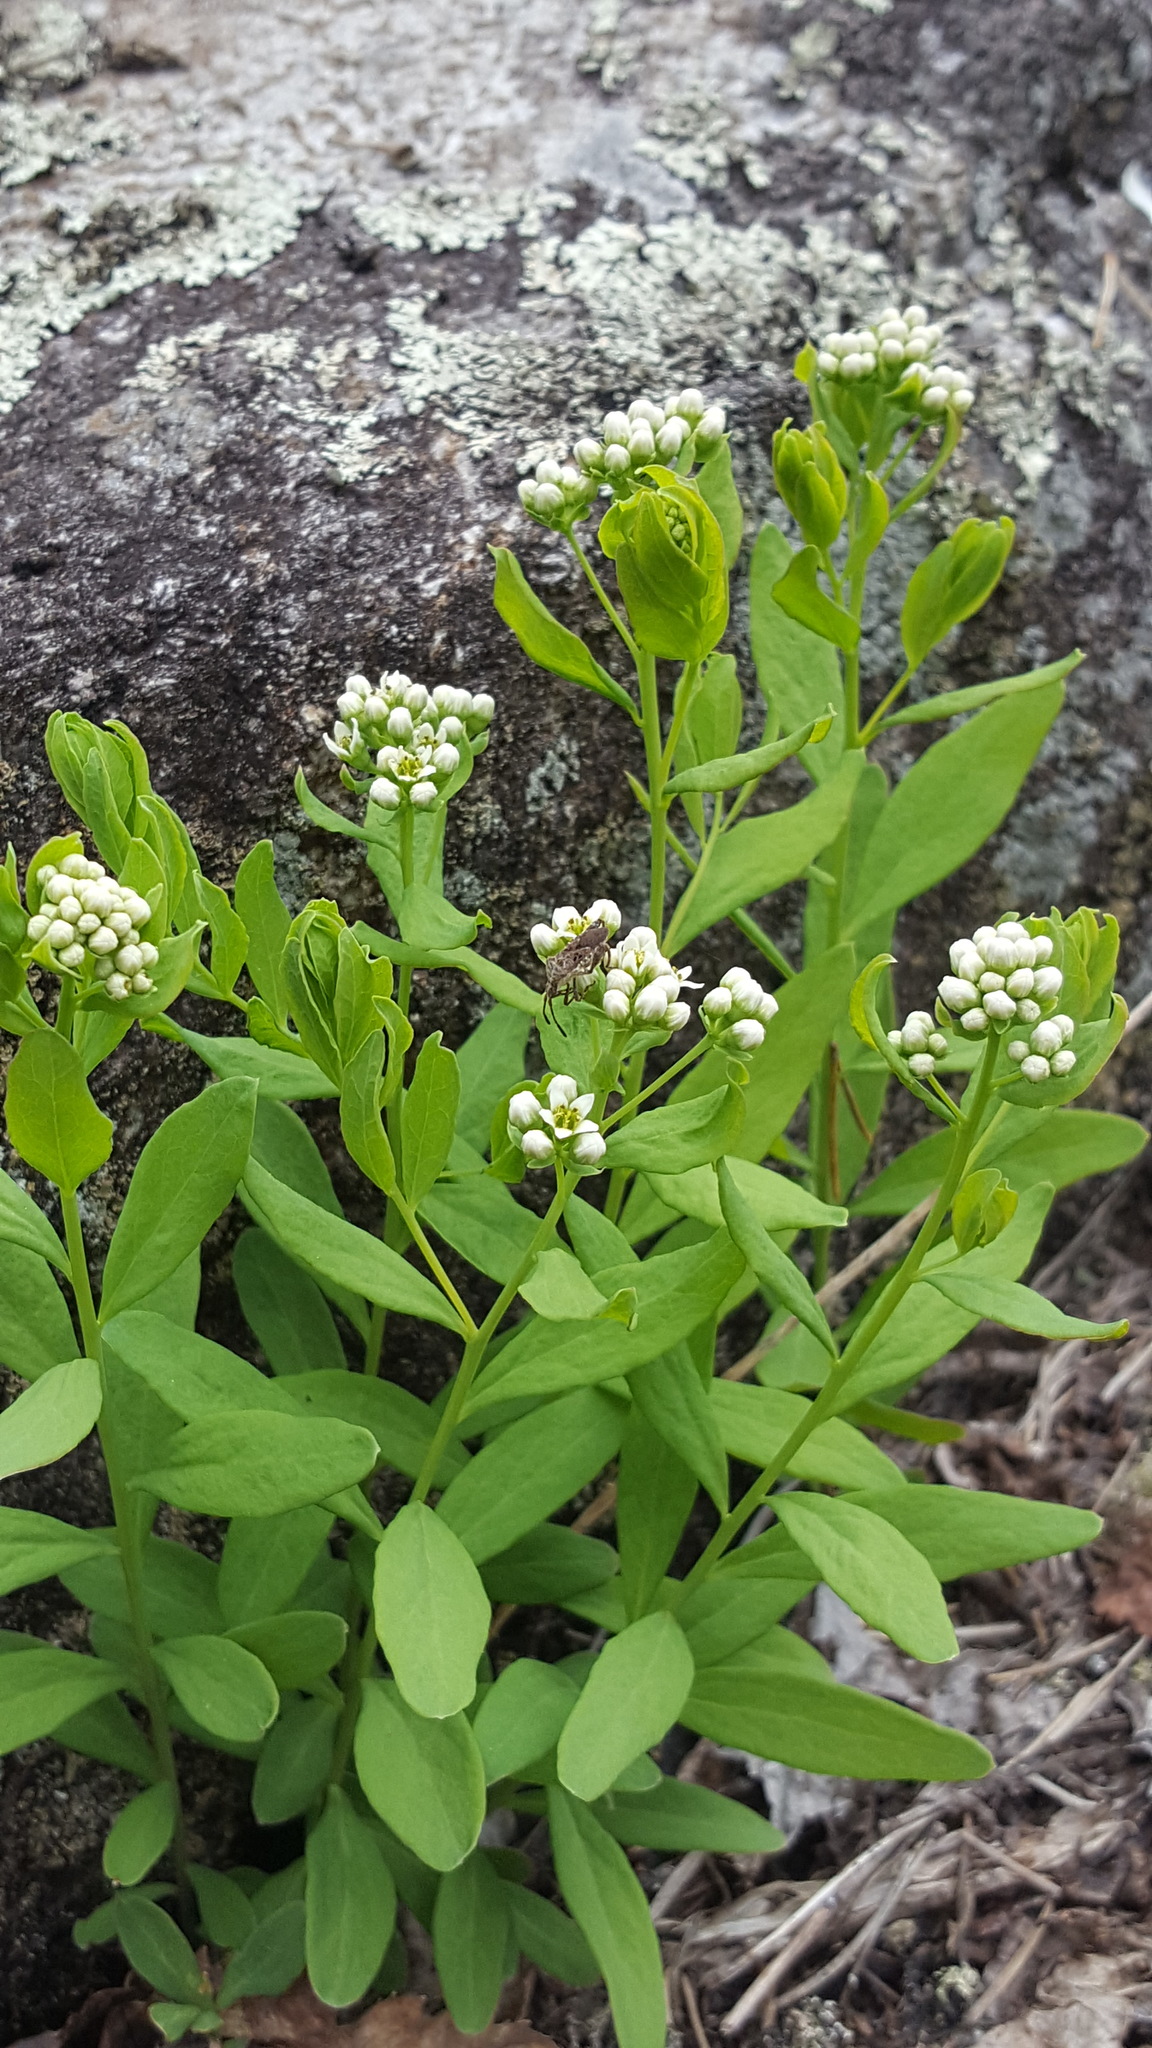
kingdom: Plantae
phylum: Tracheophyta
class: Magnoliopsida
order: Santalales
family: Comandraceae
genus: Comandra
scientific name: Comandra umbellata
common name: Bastard toadflax
